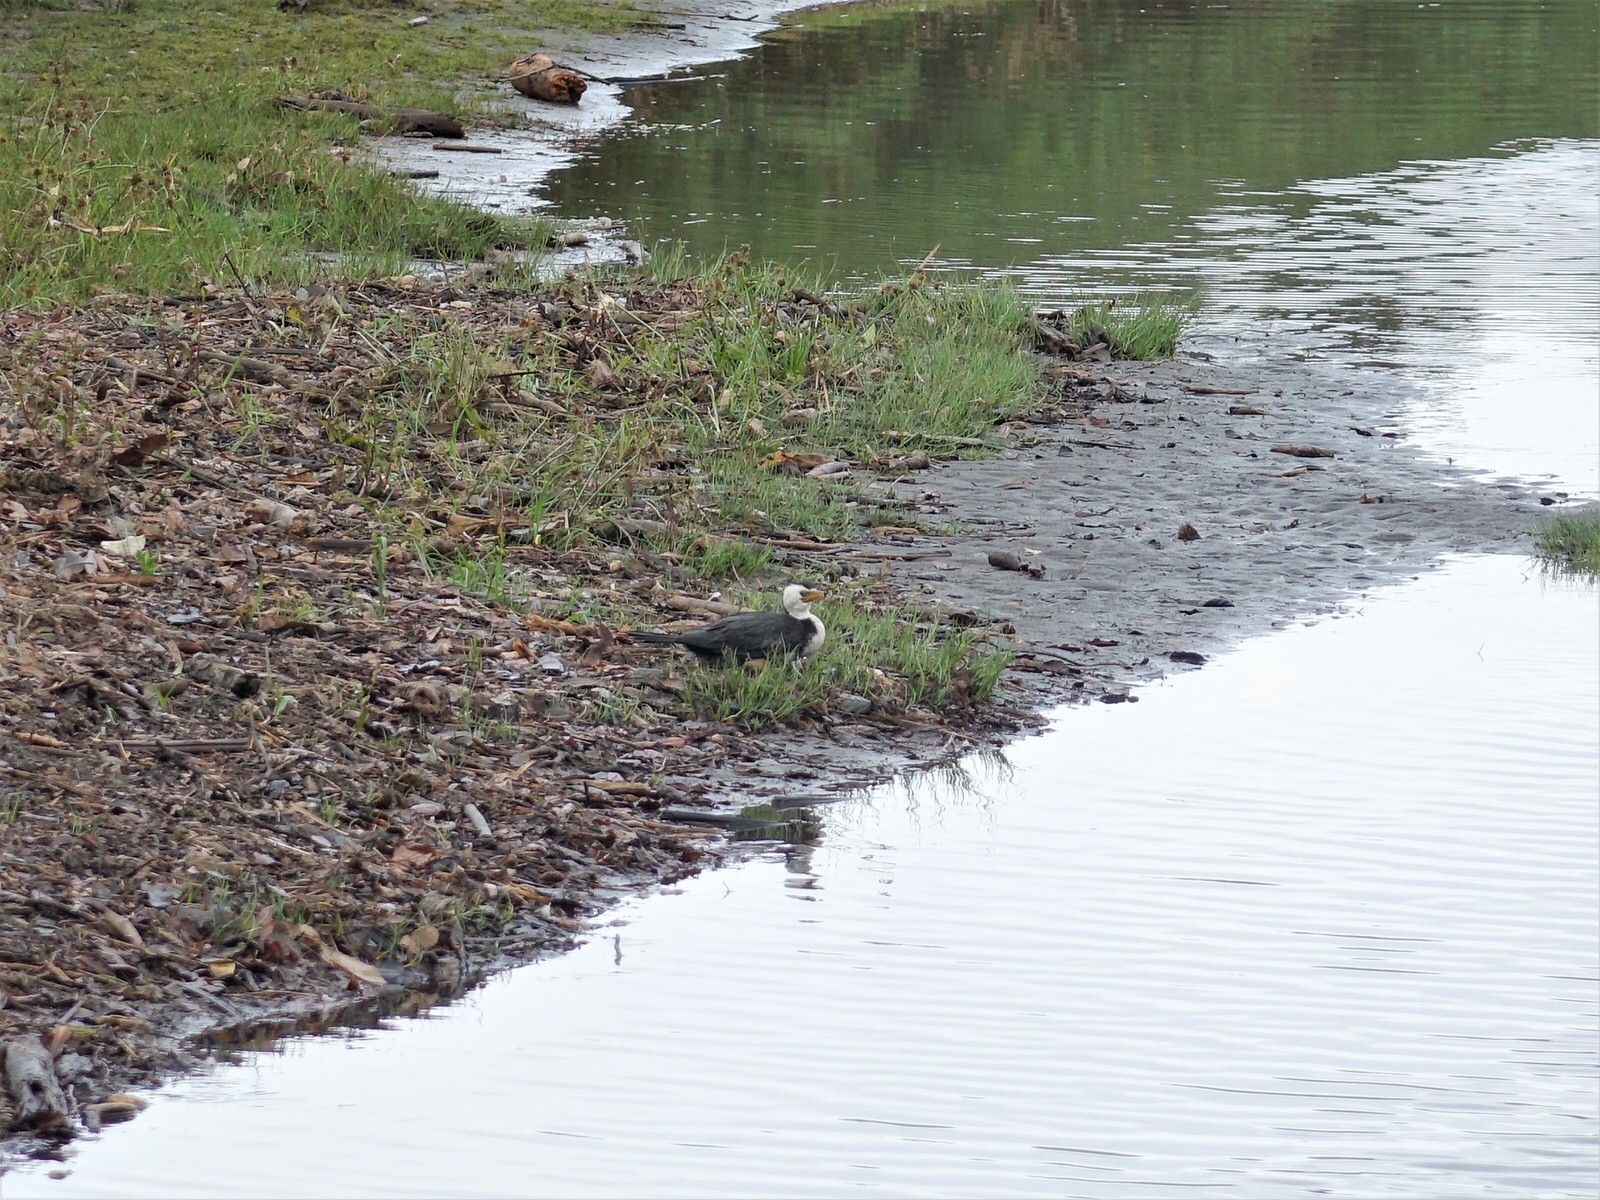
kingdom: Animalia
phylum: Chordata
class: Aves
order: Suliformes
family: Phalacrocoracidae
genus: Microcarbo
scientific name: Microcarbo melanoleucos
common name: Little pied cormorant
